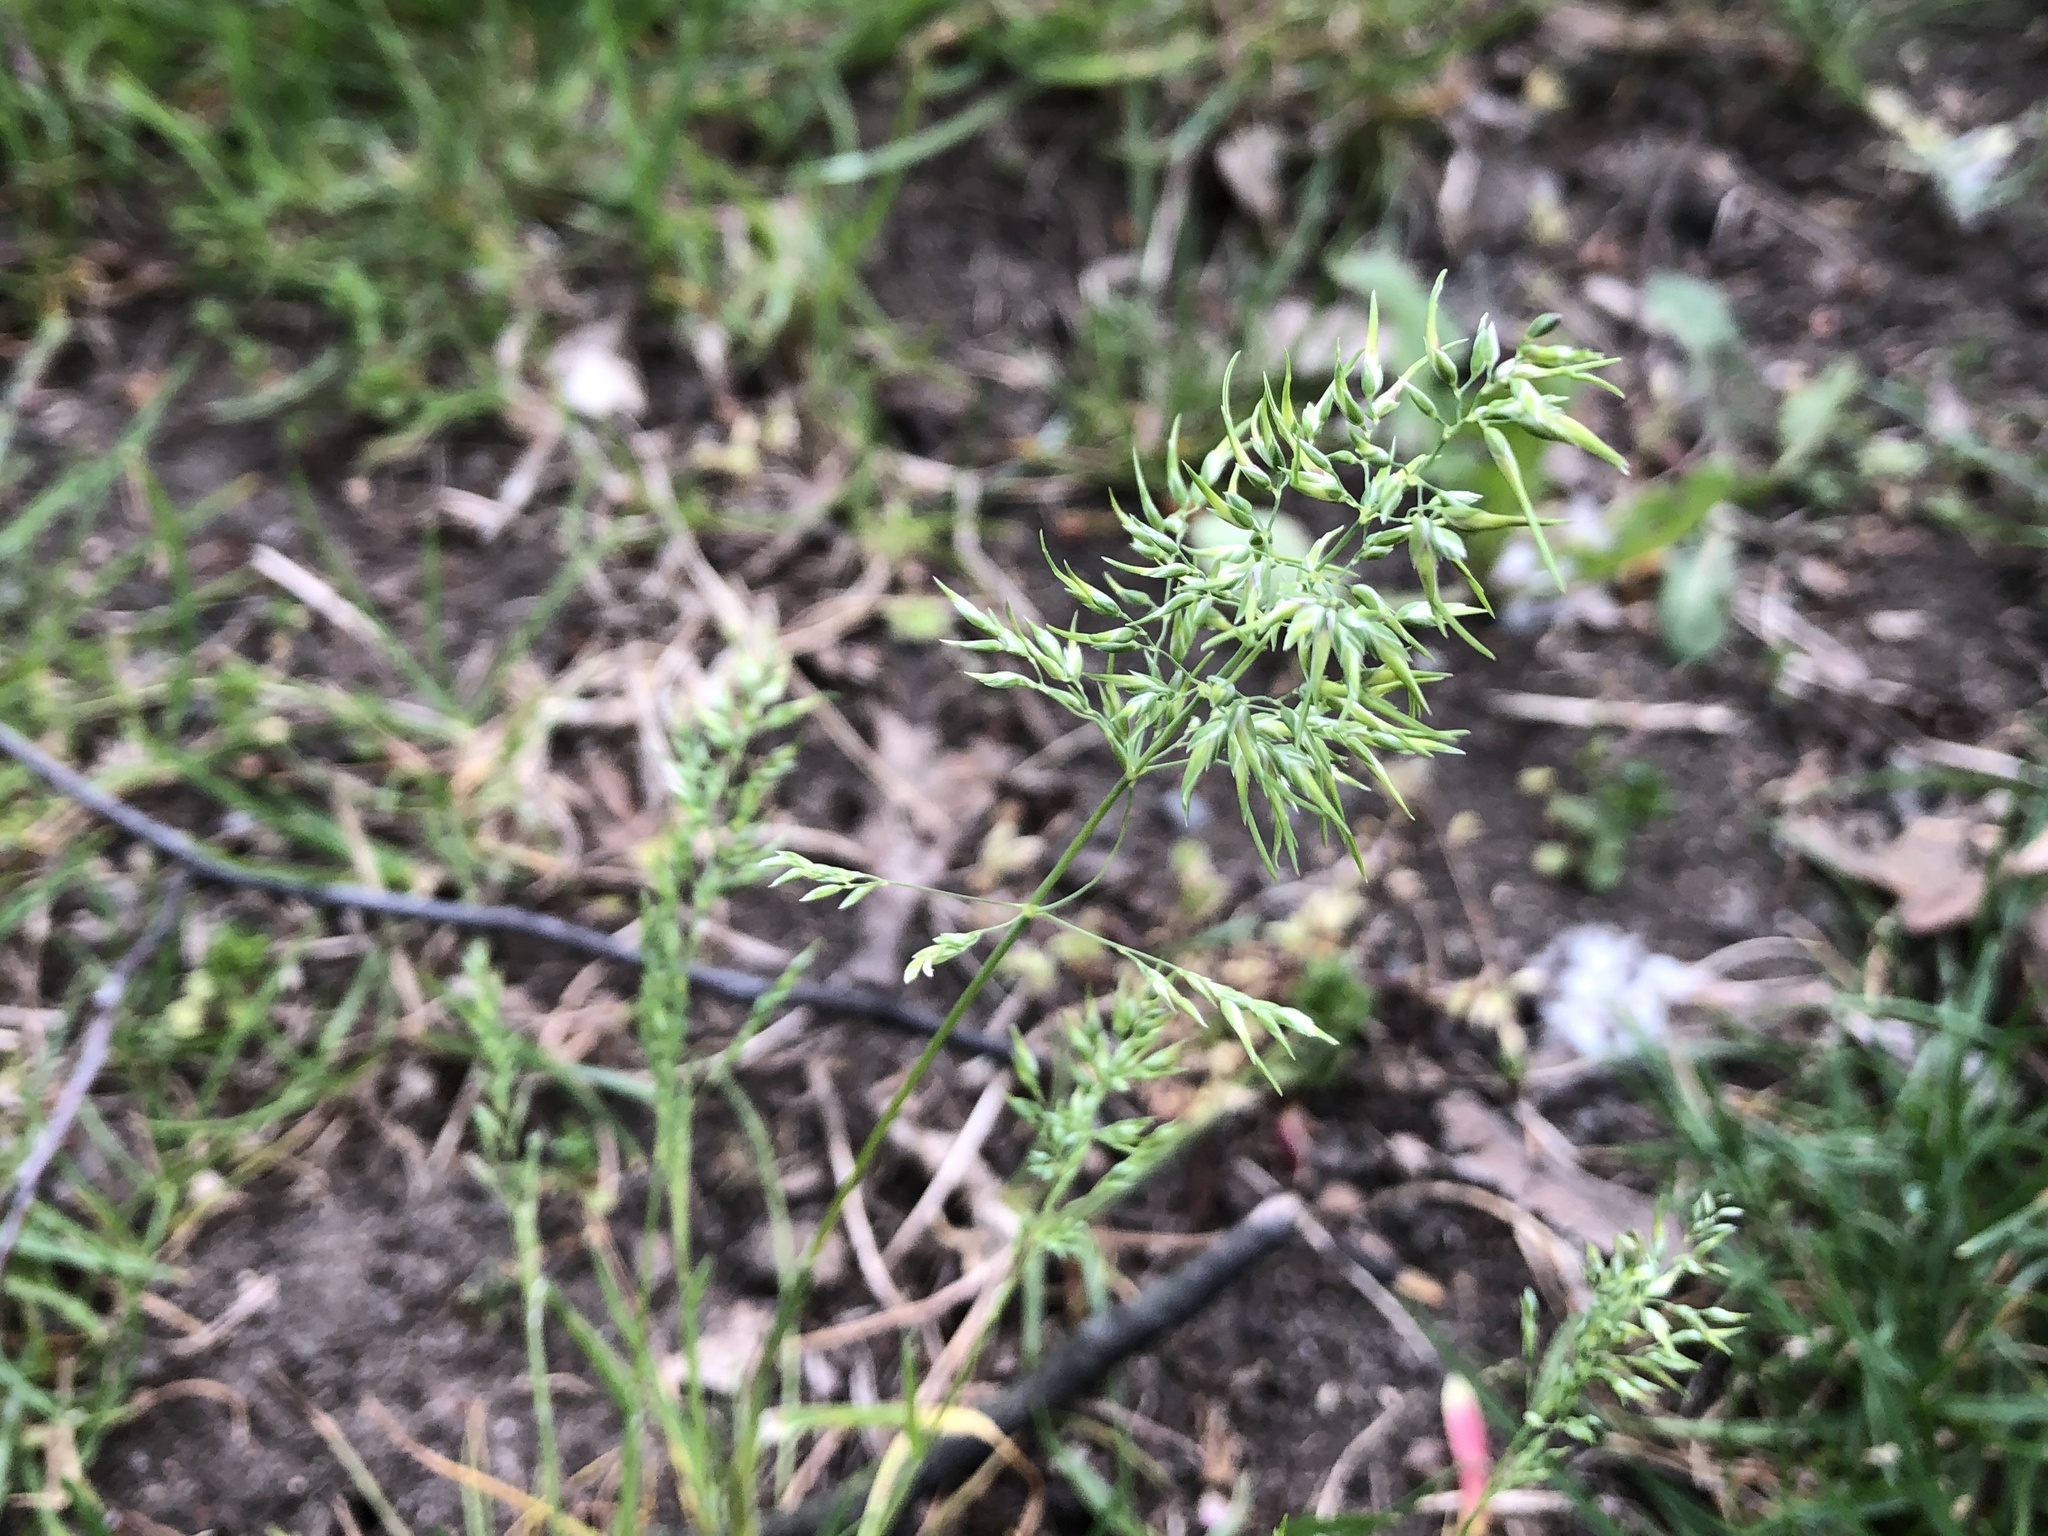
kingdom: Plantae
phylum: Tracheophyta
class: Liliopsida
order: Poales
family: Poaceae
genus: Poa
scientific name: Poa bulbosa
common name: Bulbous bluegrass
